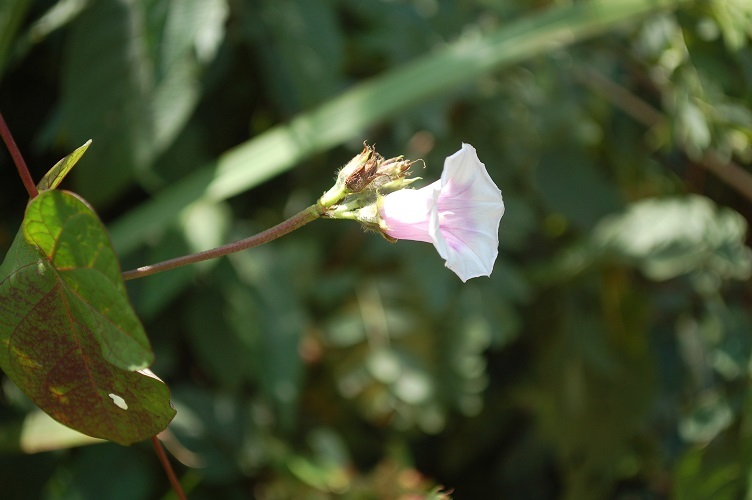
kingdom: Plantae
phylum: Tracheophyta
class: Magnoliopsida
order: Solanales
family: Convolvulaceae
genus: Ipomoea
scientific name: Ipomoea batatas
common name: Sweet-potato
